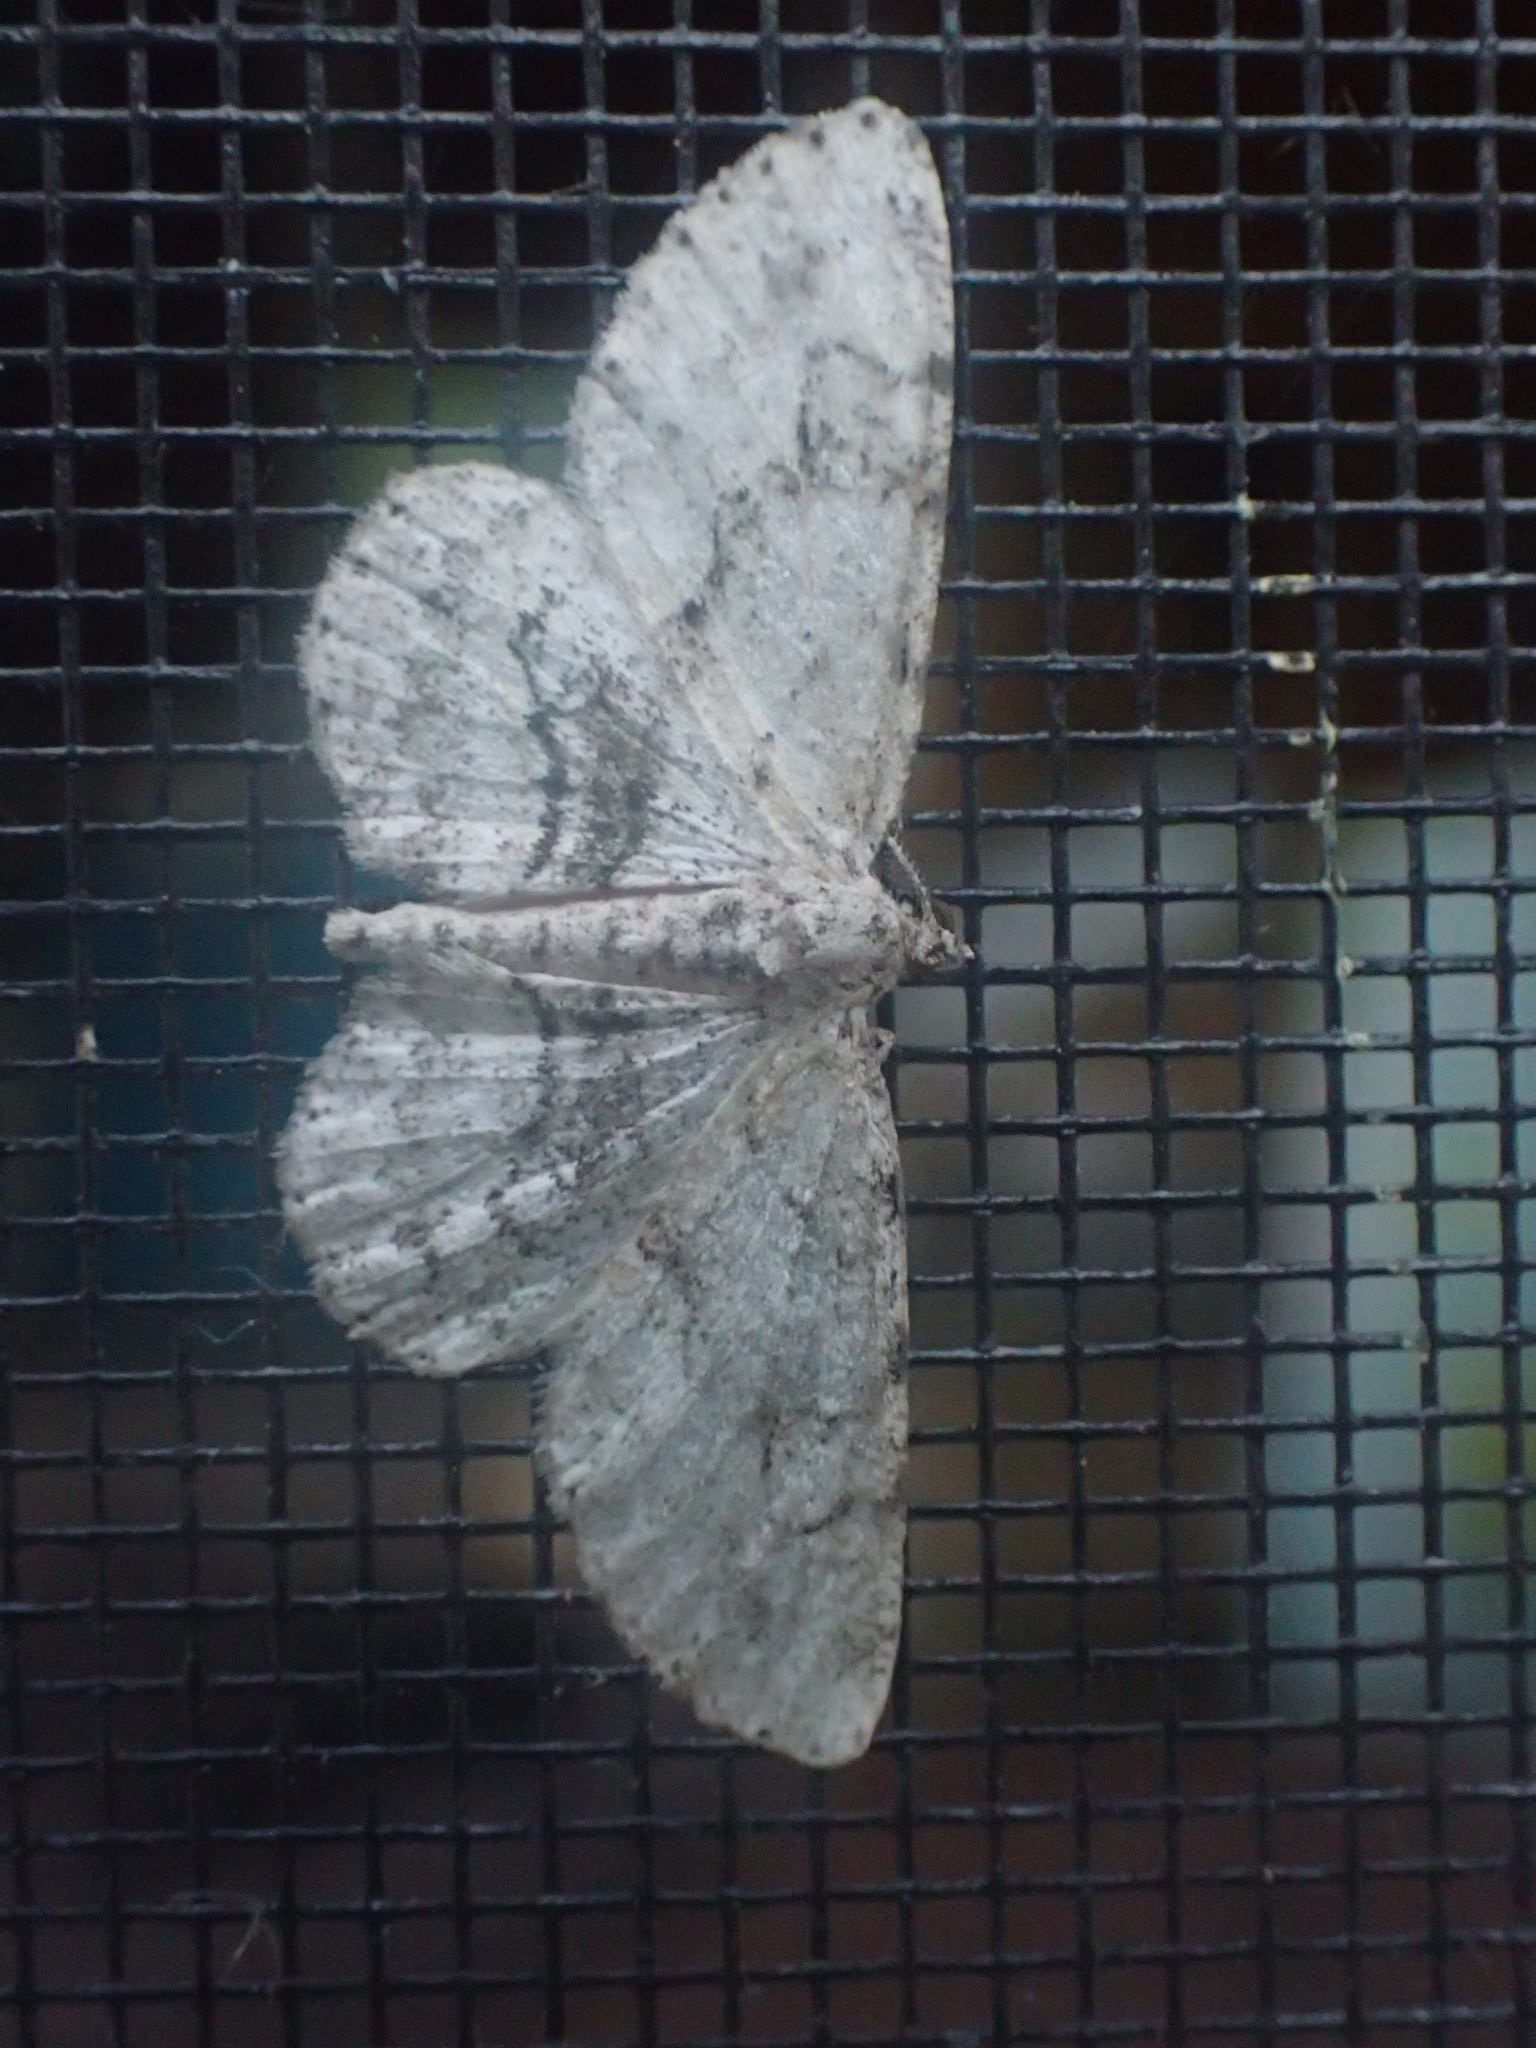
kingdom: Animalia
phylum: Arthropoda
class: Insecta
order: Lepidoptera
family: Geometridae
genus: Iridopsis
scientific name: Iridopsis ephyraria
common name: Pale-winged gray
